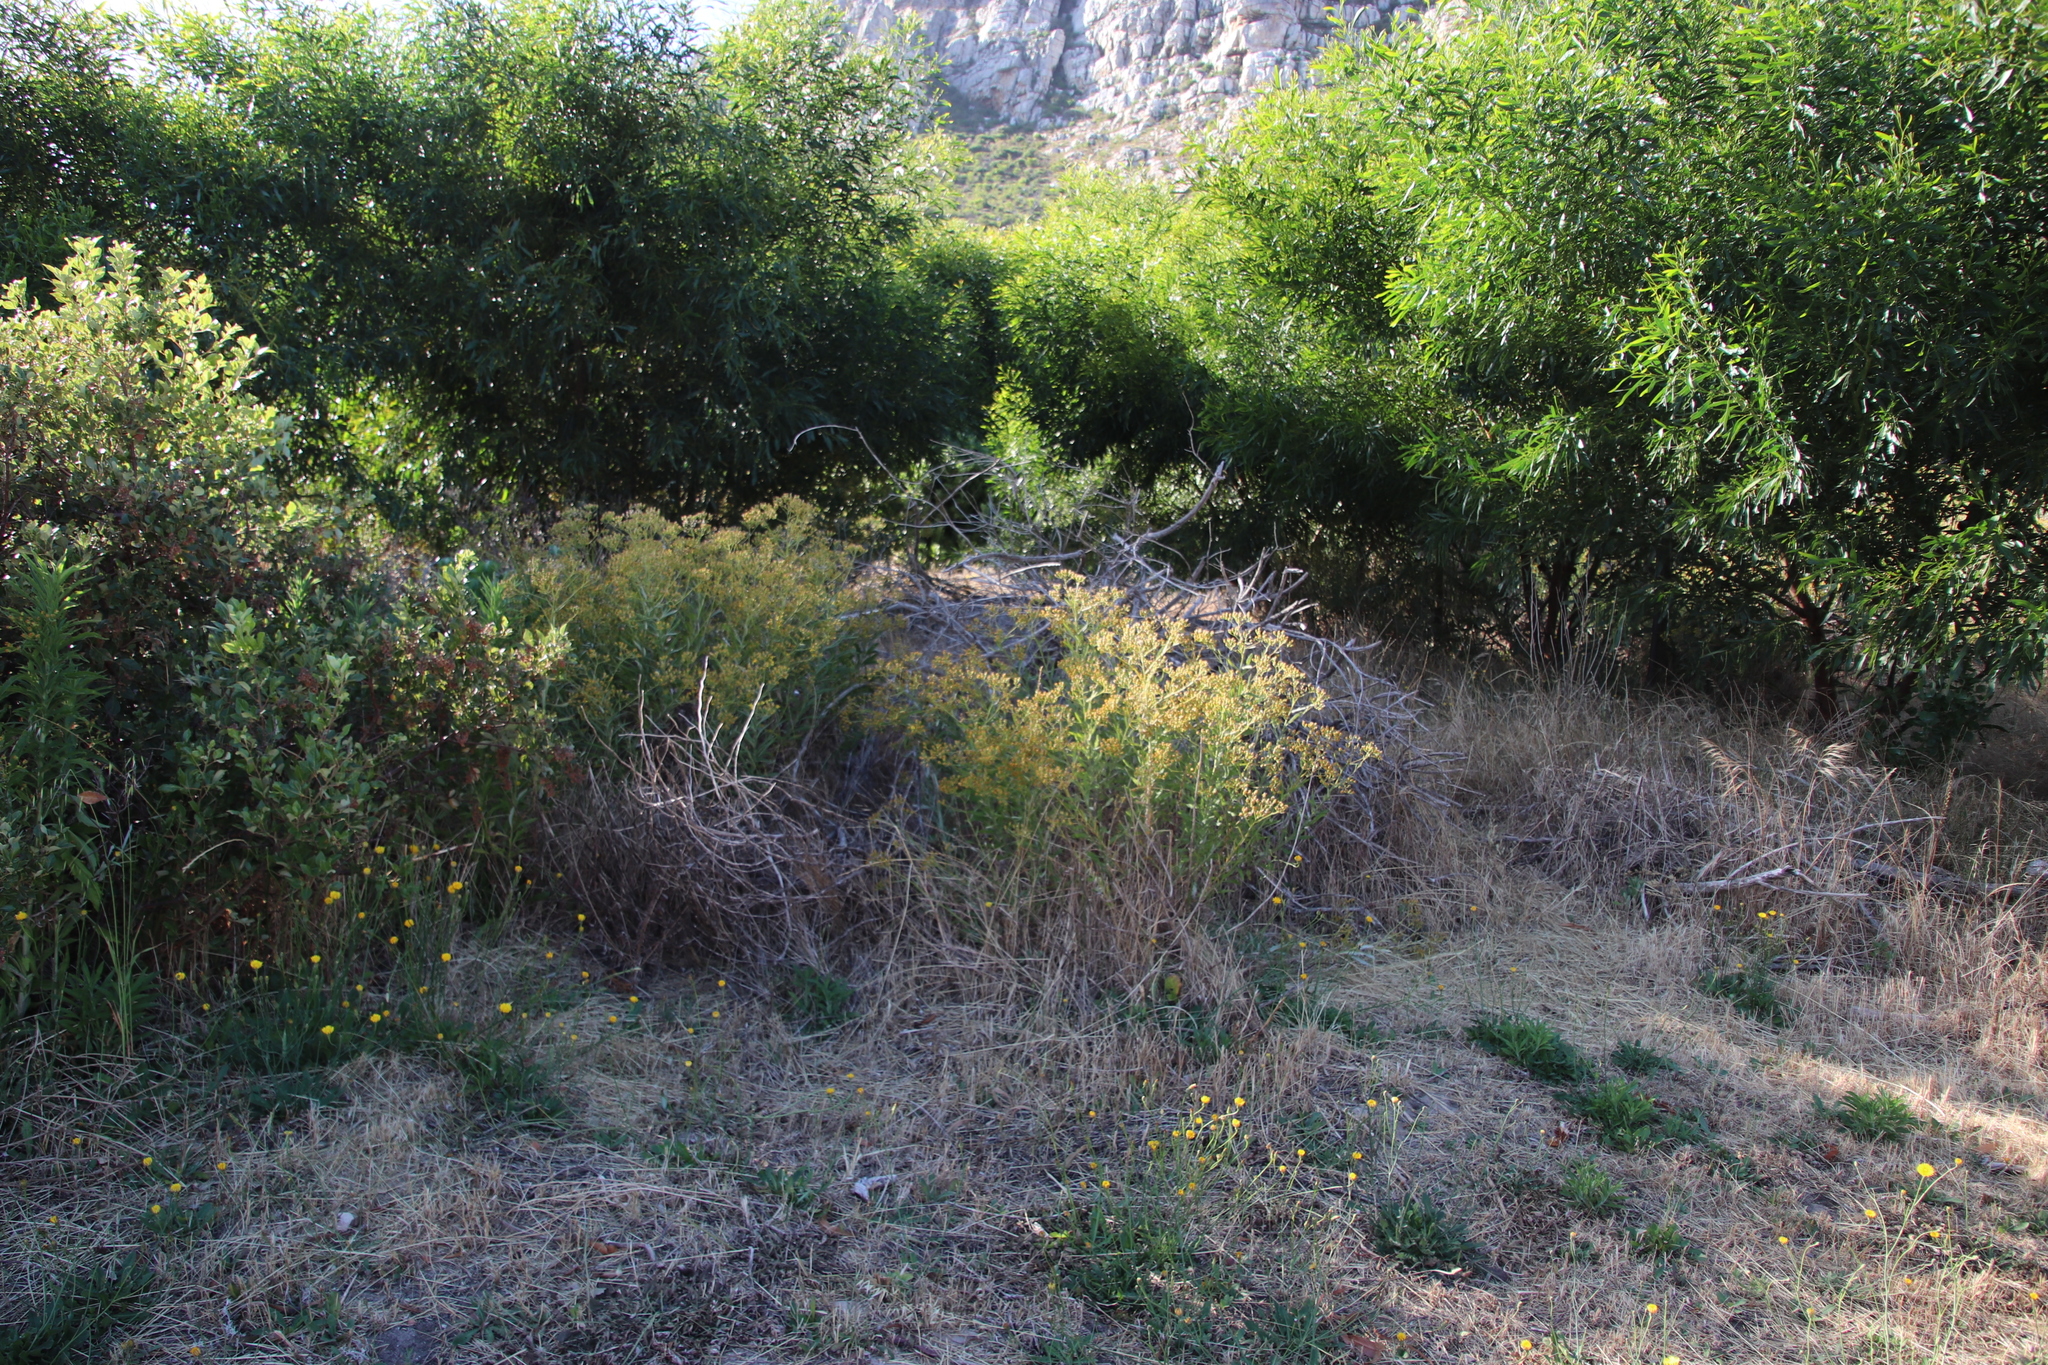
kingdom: Plantae
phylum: Tracheophyta
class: Magnoliopsida
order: Asterales
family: Asteraceae
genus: Senecio
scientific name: Senecio pterophorus
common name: Shoddy ragwort
